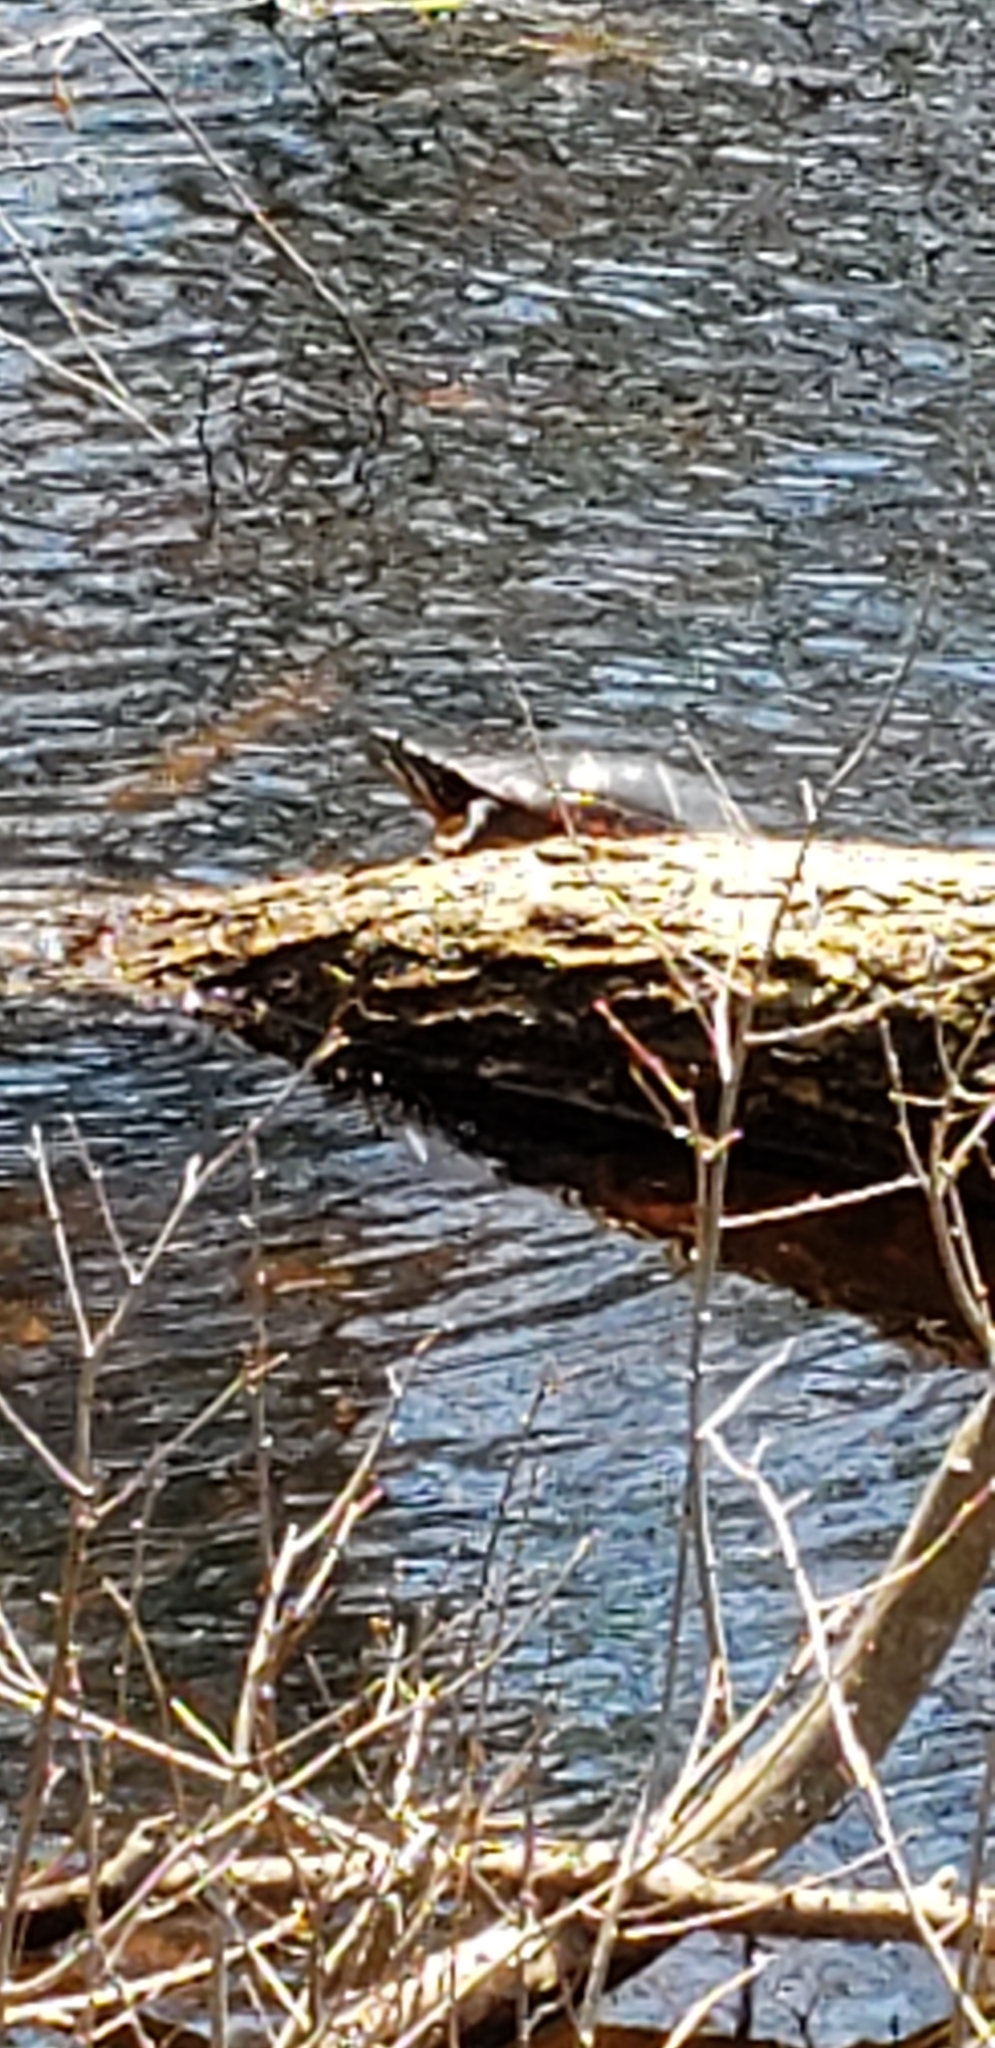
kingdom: Animalia
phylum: Chordata
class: Testudines
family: Emydidae
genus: Chrysemys
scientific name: Chrysemys picta
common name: Painted turtle
